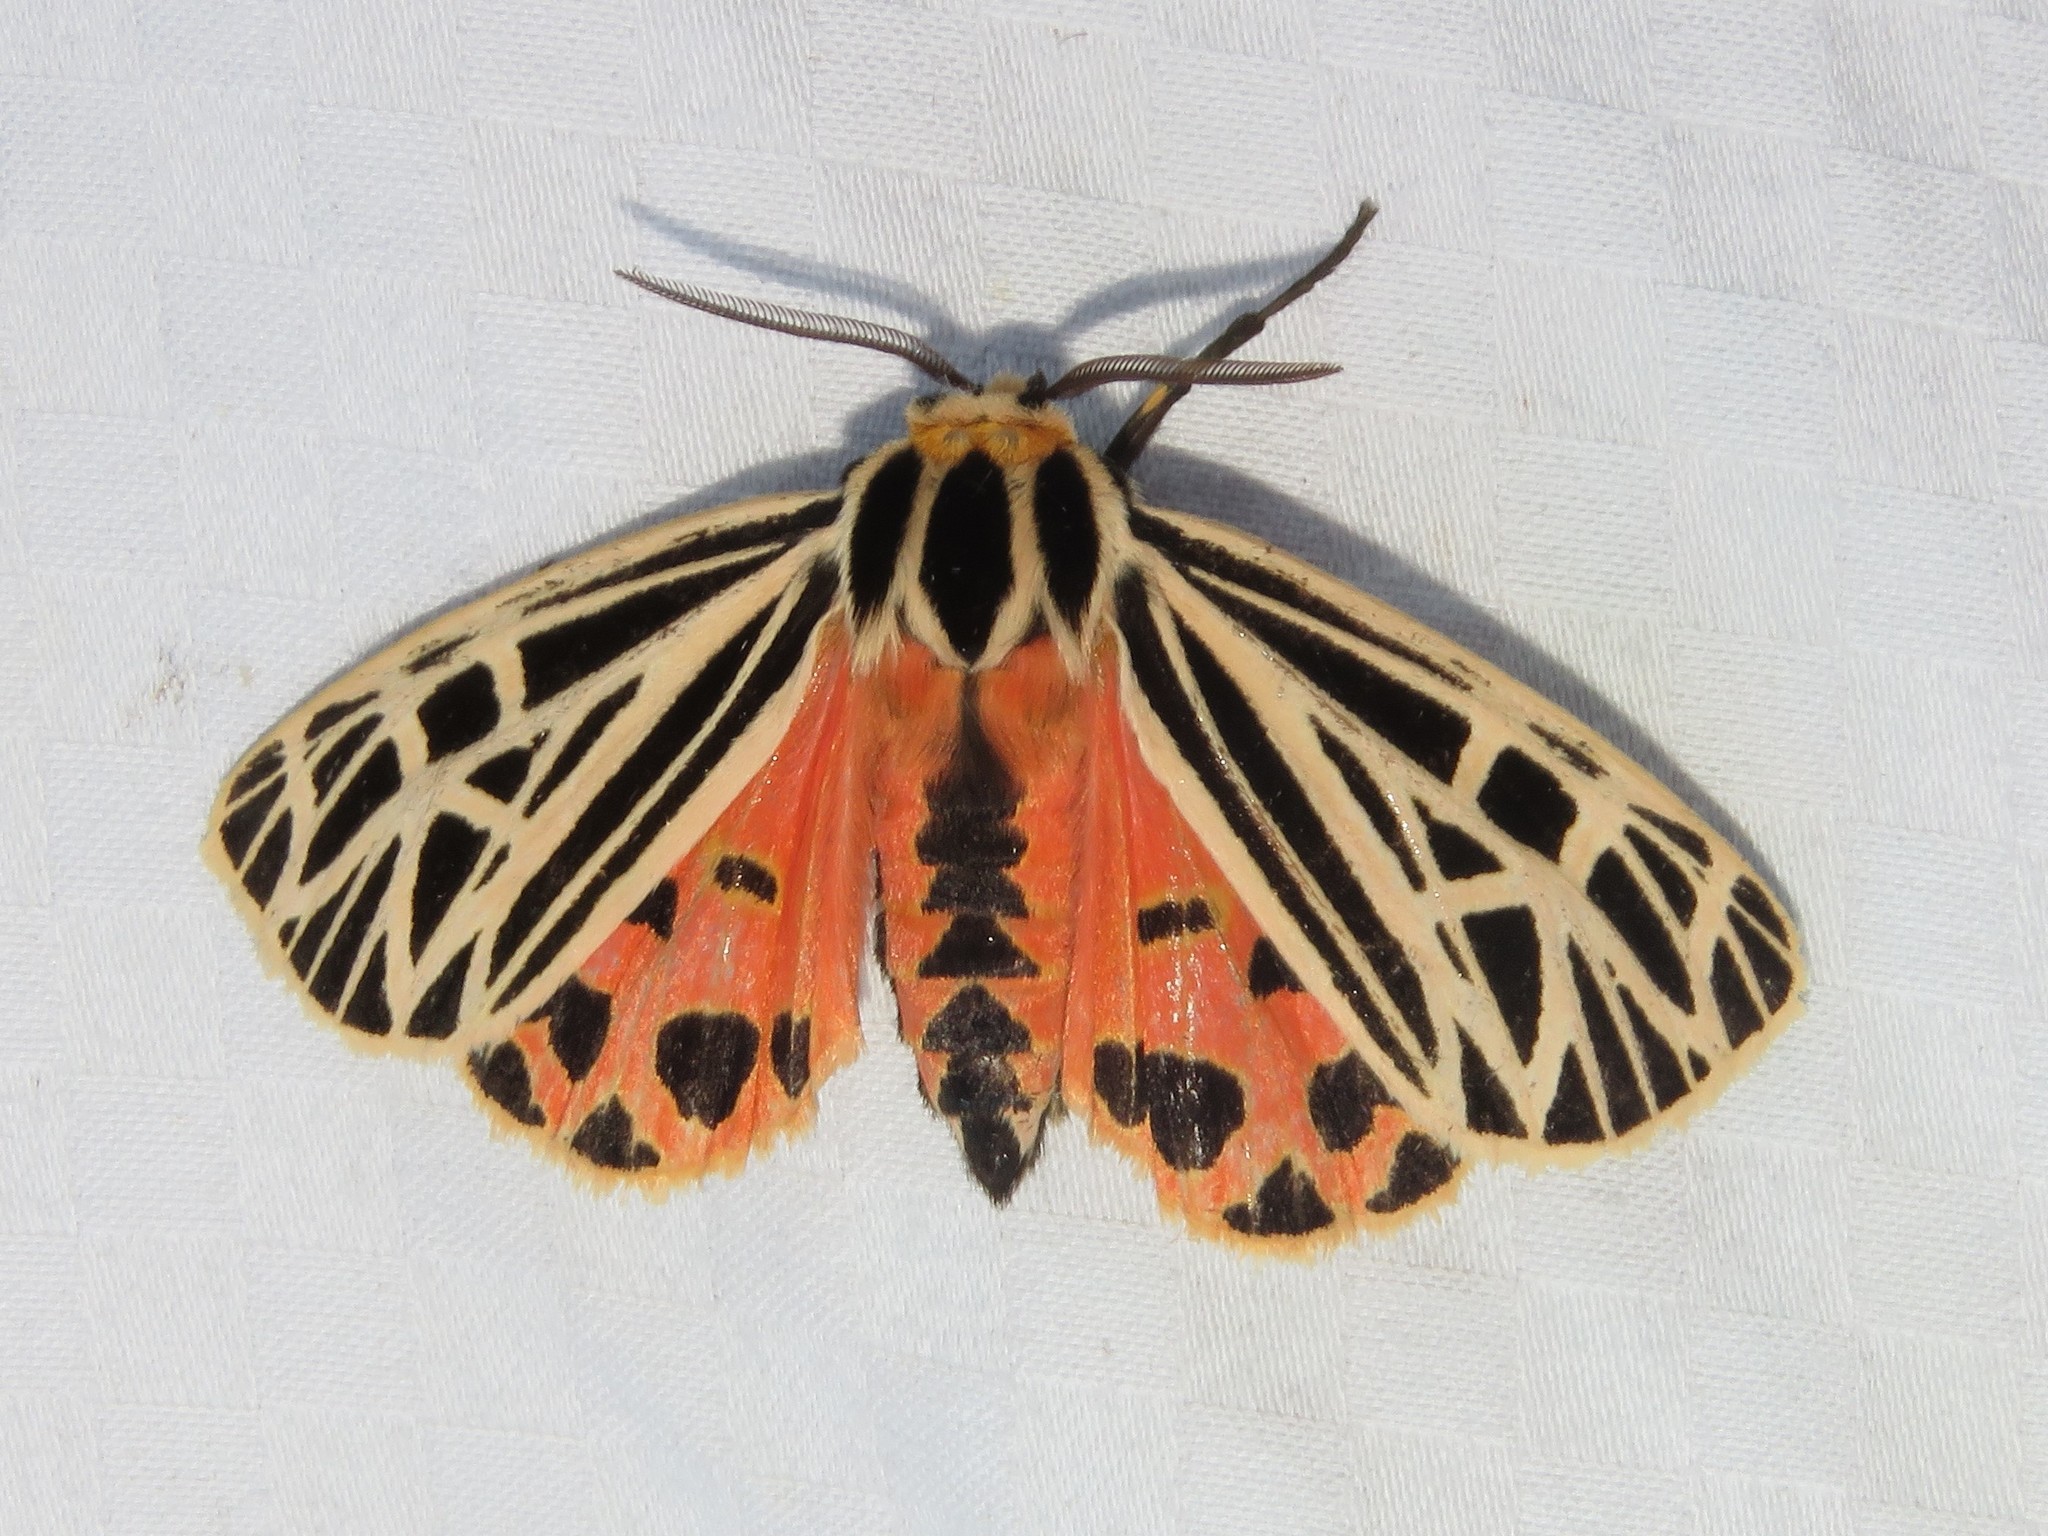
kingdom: Animalia
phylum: Arthropoda
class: Insecta
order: Lepidoptera
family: Erebidae
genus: Grammia
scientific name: Grammia virgo
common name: Virgin tiger moth
